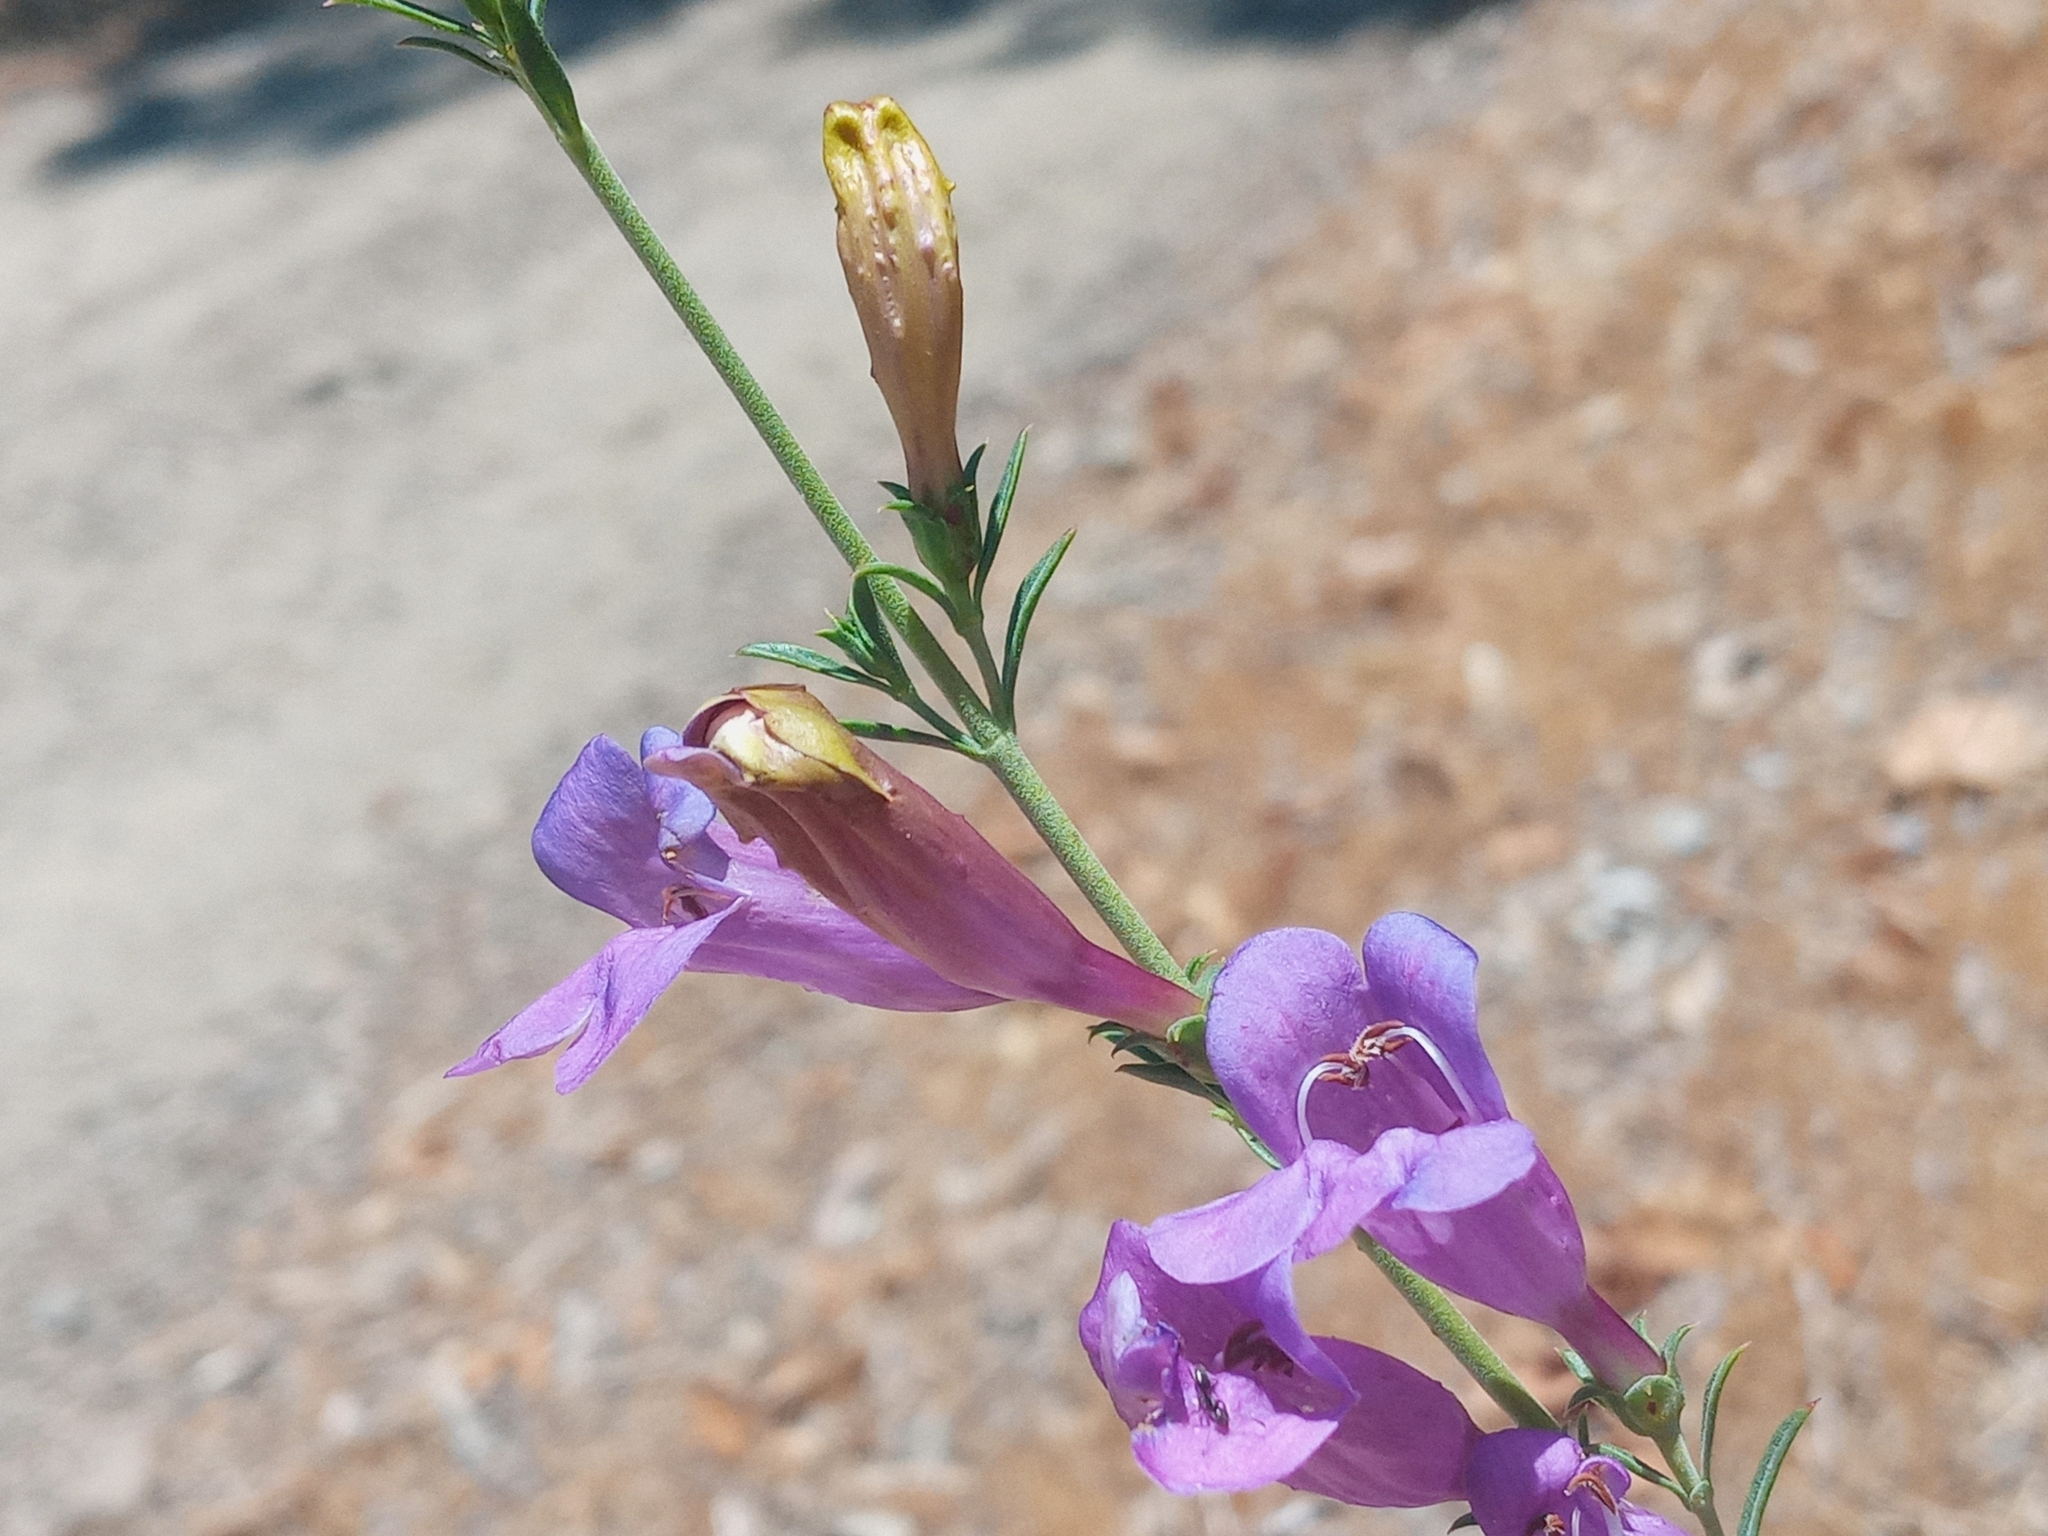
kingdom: Plantae
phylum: Tracheophyta
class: Magnoliopsida
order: Lamiales
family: Plantaginaceae
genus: Penstemon
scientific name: Penstemon heterophyllus
